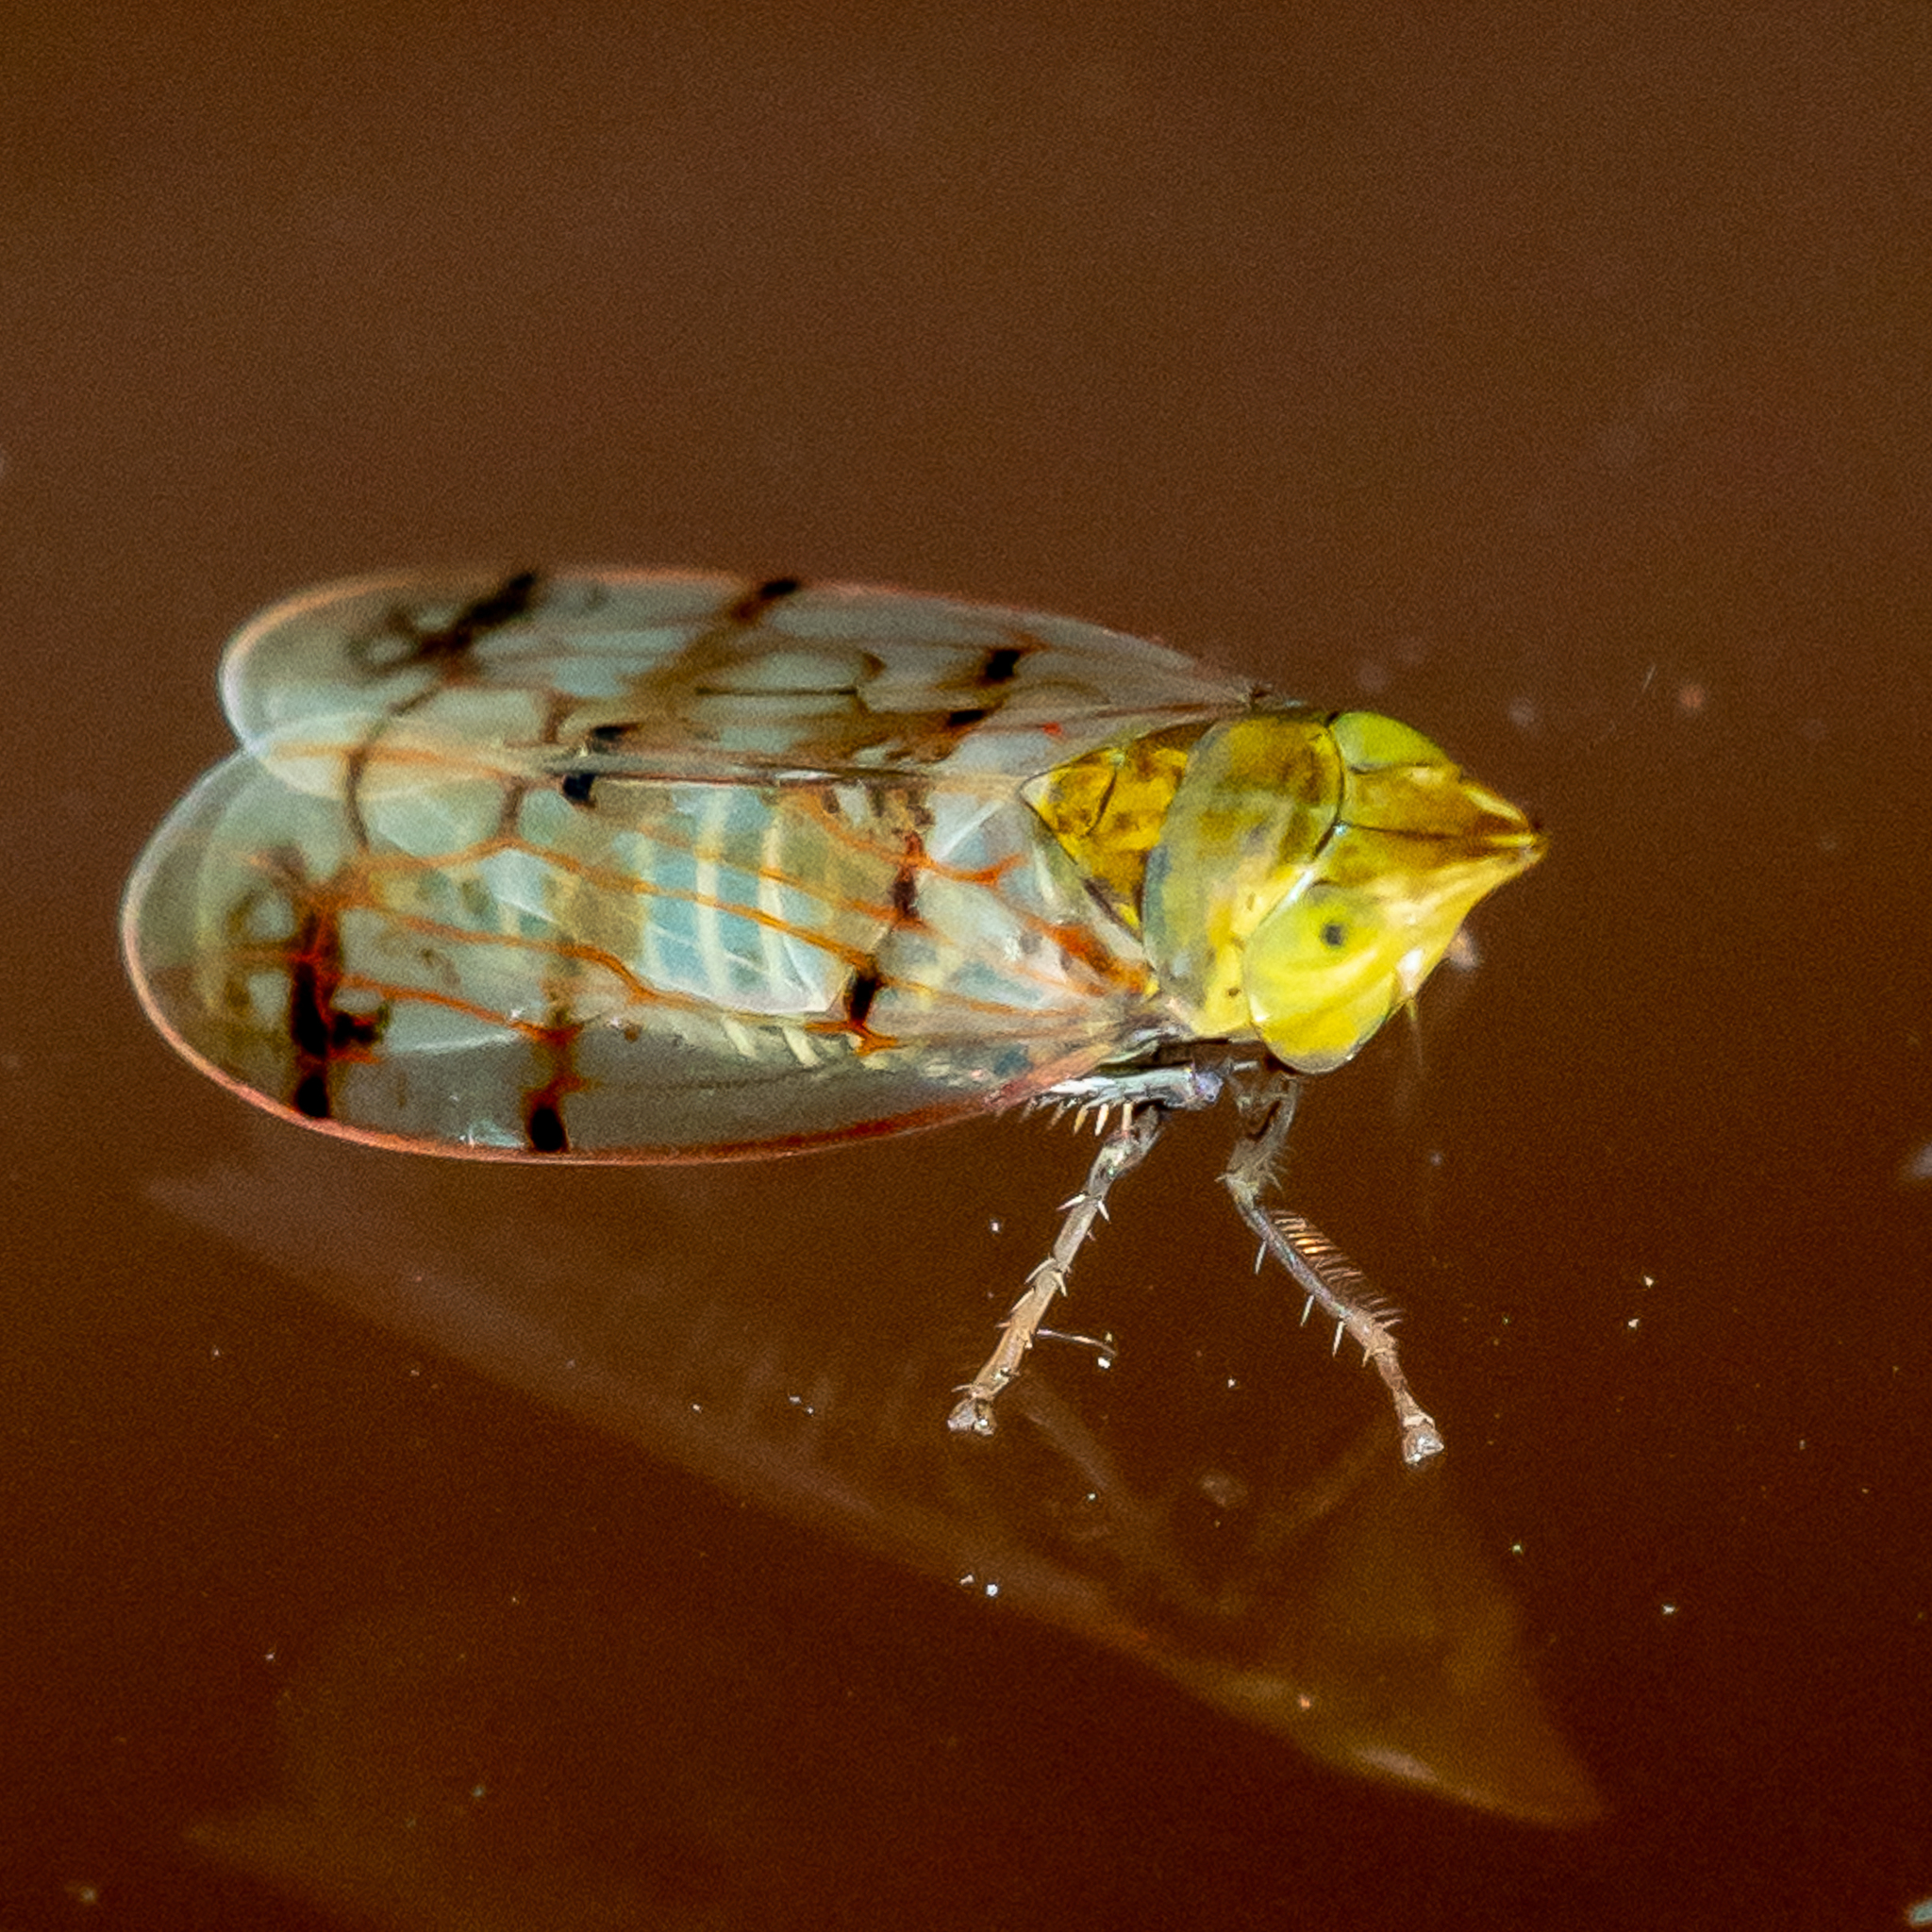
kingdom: Animalia
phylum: Arthropoda
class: Insecta
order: Hemiptera
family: Cicadellidae
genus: Japananus
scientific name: Japananus hyalinus
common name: The japanese maple leafhopper
